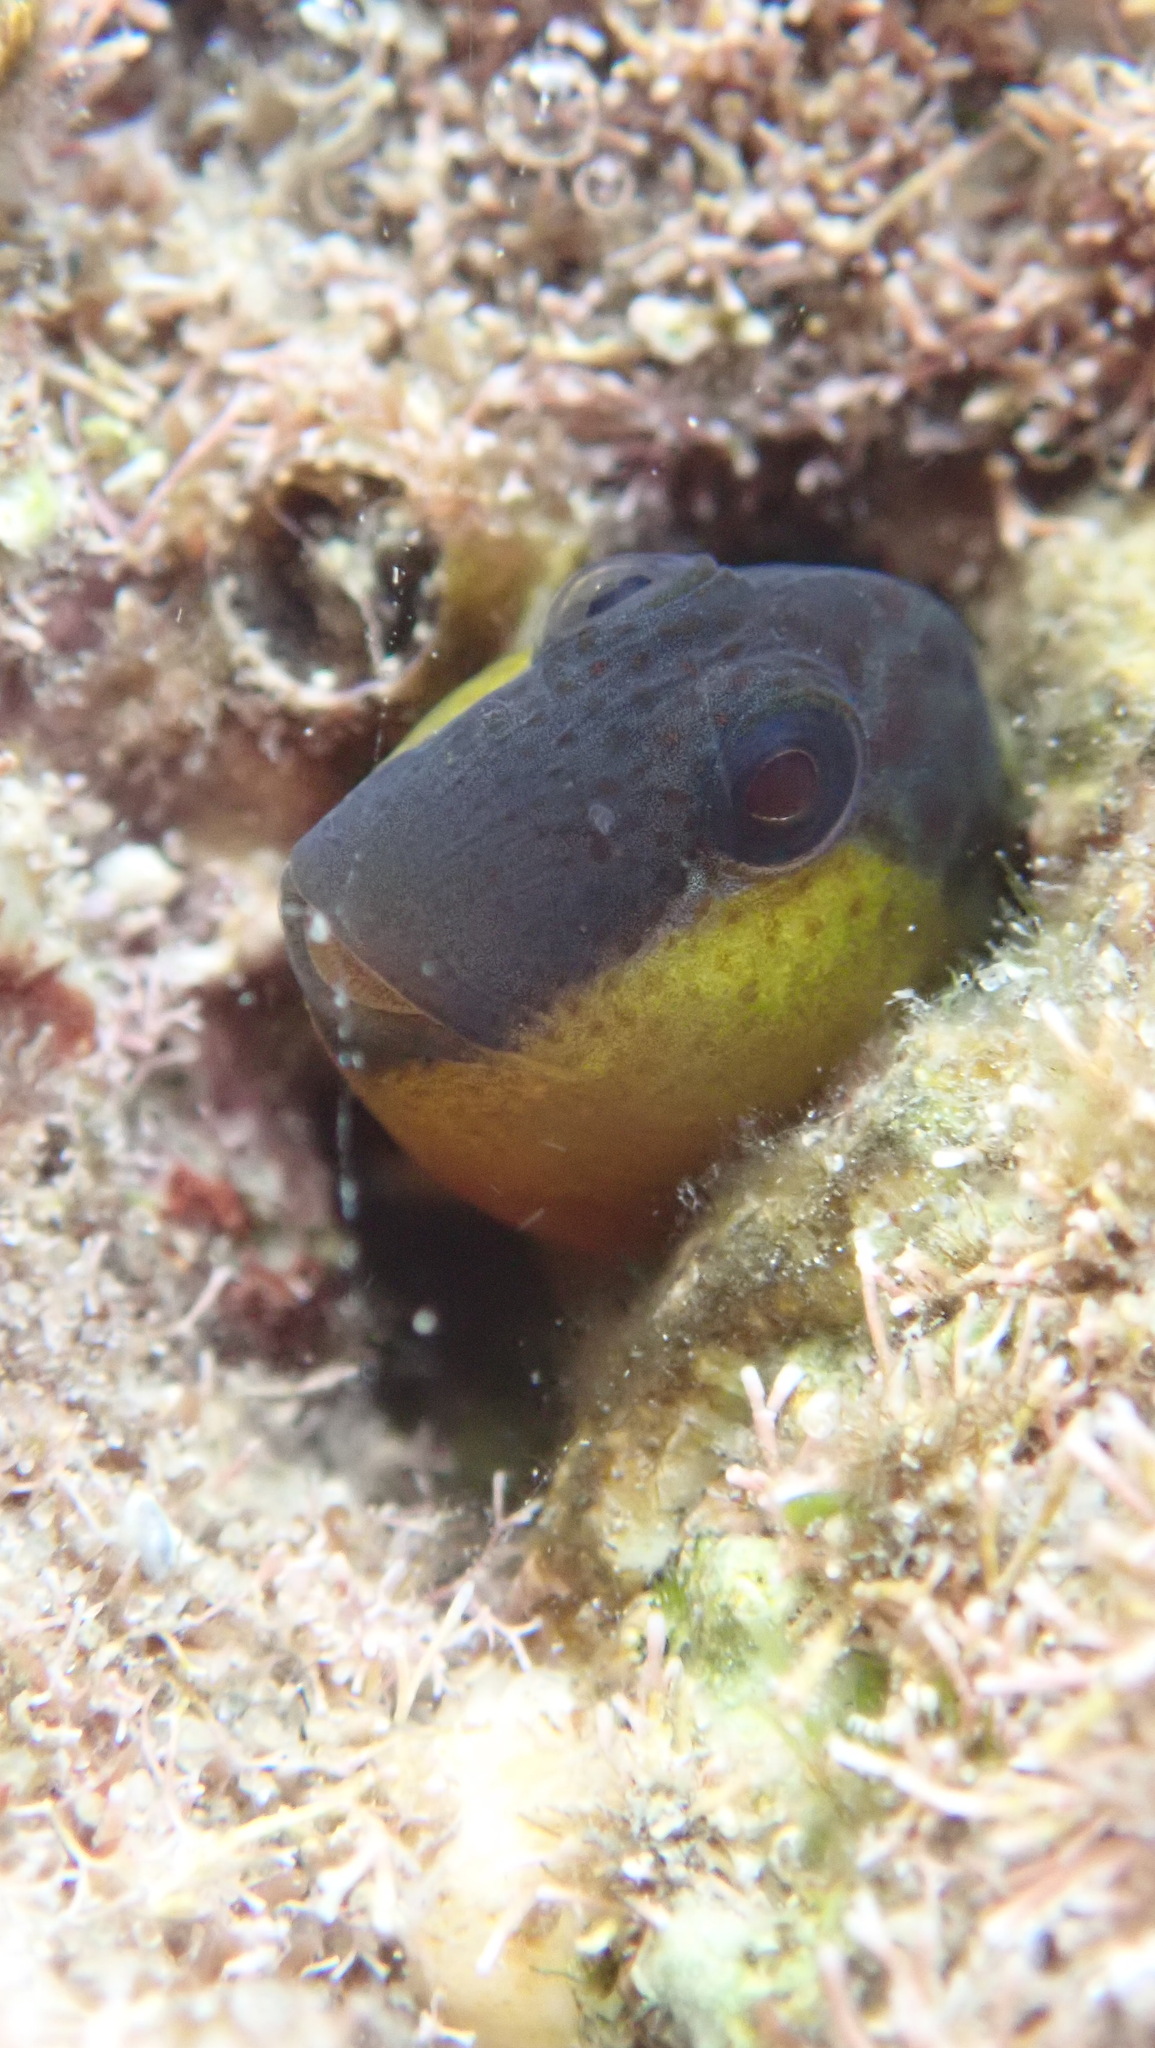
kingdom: Animalia
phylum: Chordata
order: Perciformes
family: Blenniidae
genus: Microlipophrys
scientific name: Microlipophrys canevae
